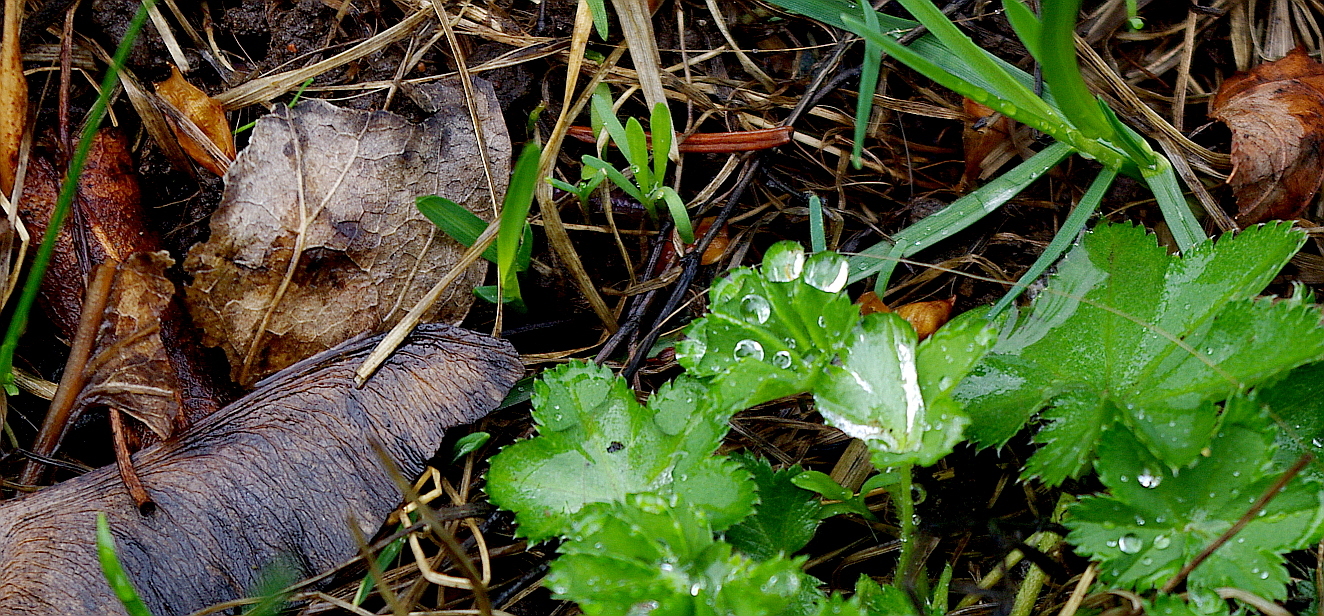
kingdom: Plantae
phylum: Tracheophyta
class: Magnoliopsida
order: Rosales
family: Rosaceae
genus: Alchemilla
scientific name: Alchemilla filicaulis
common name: Hairy lady's-mantle
